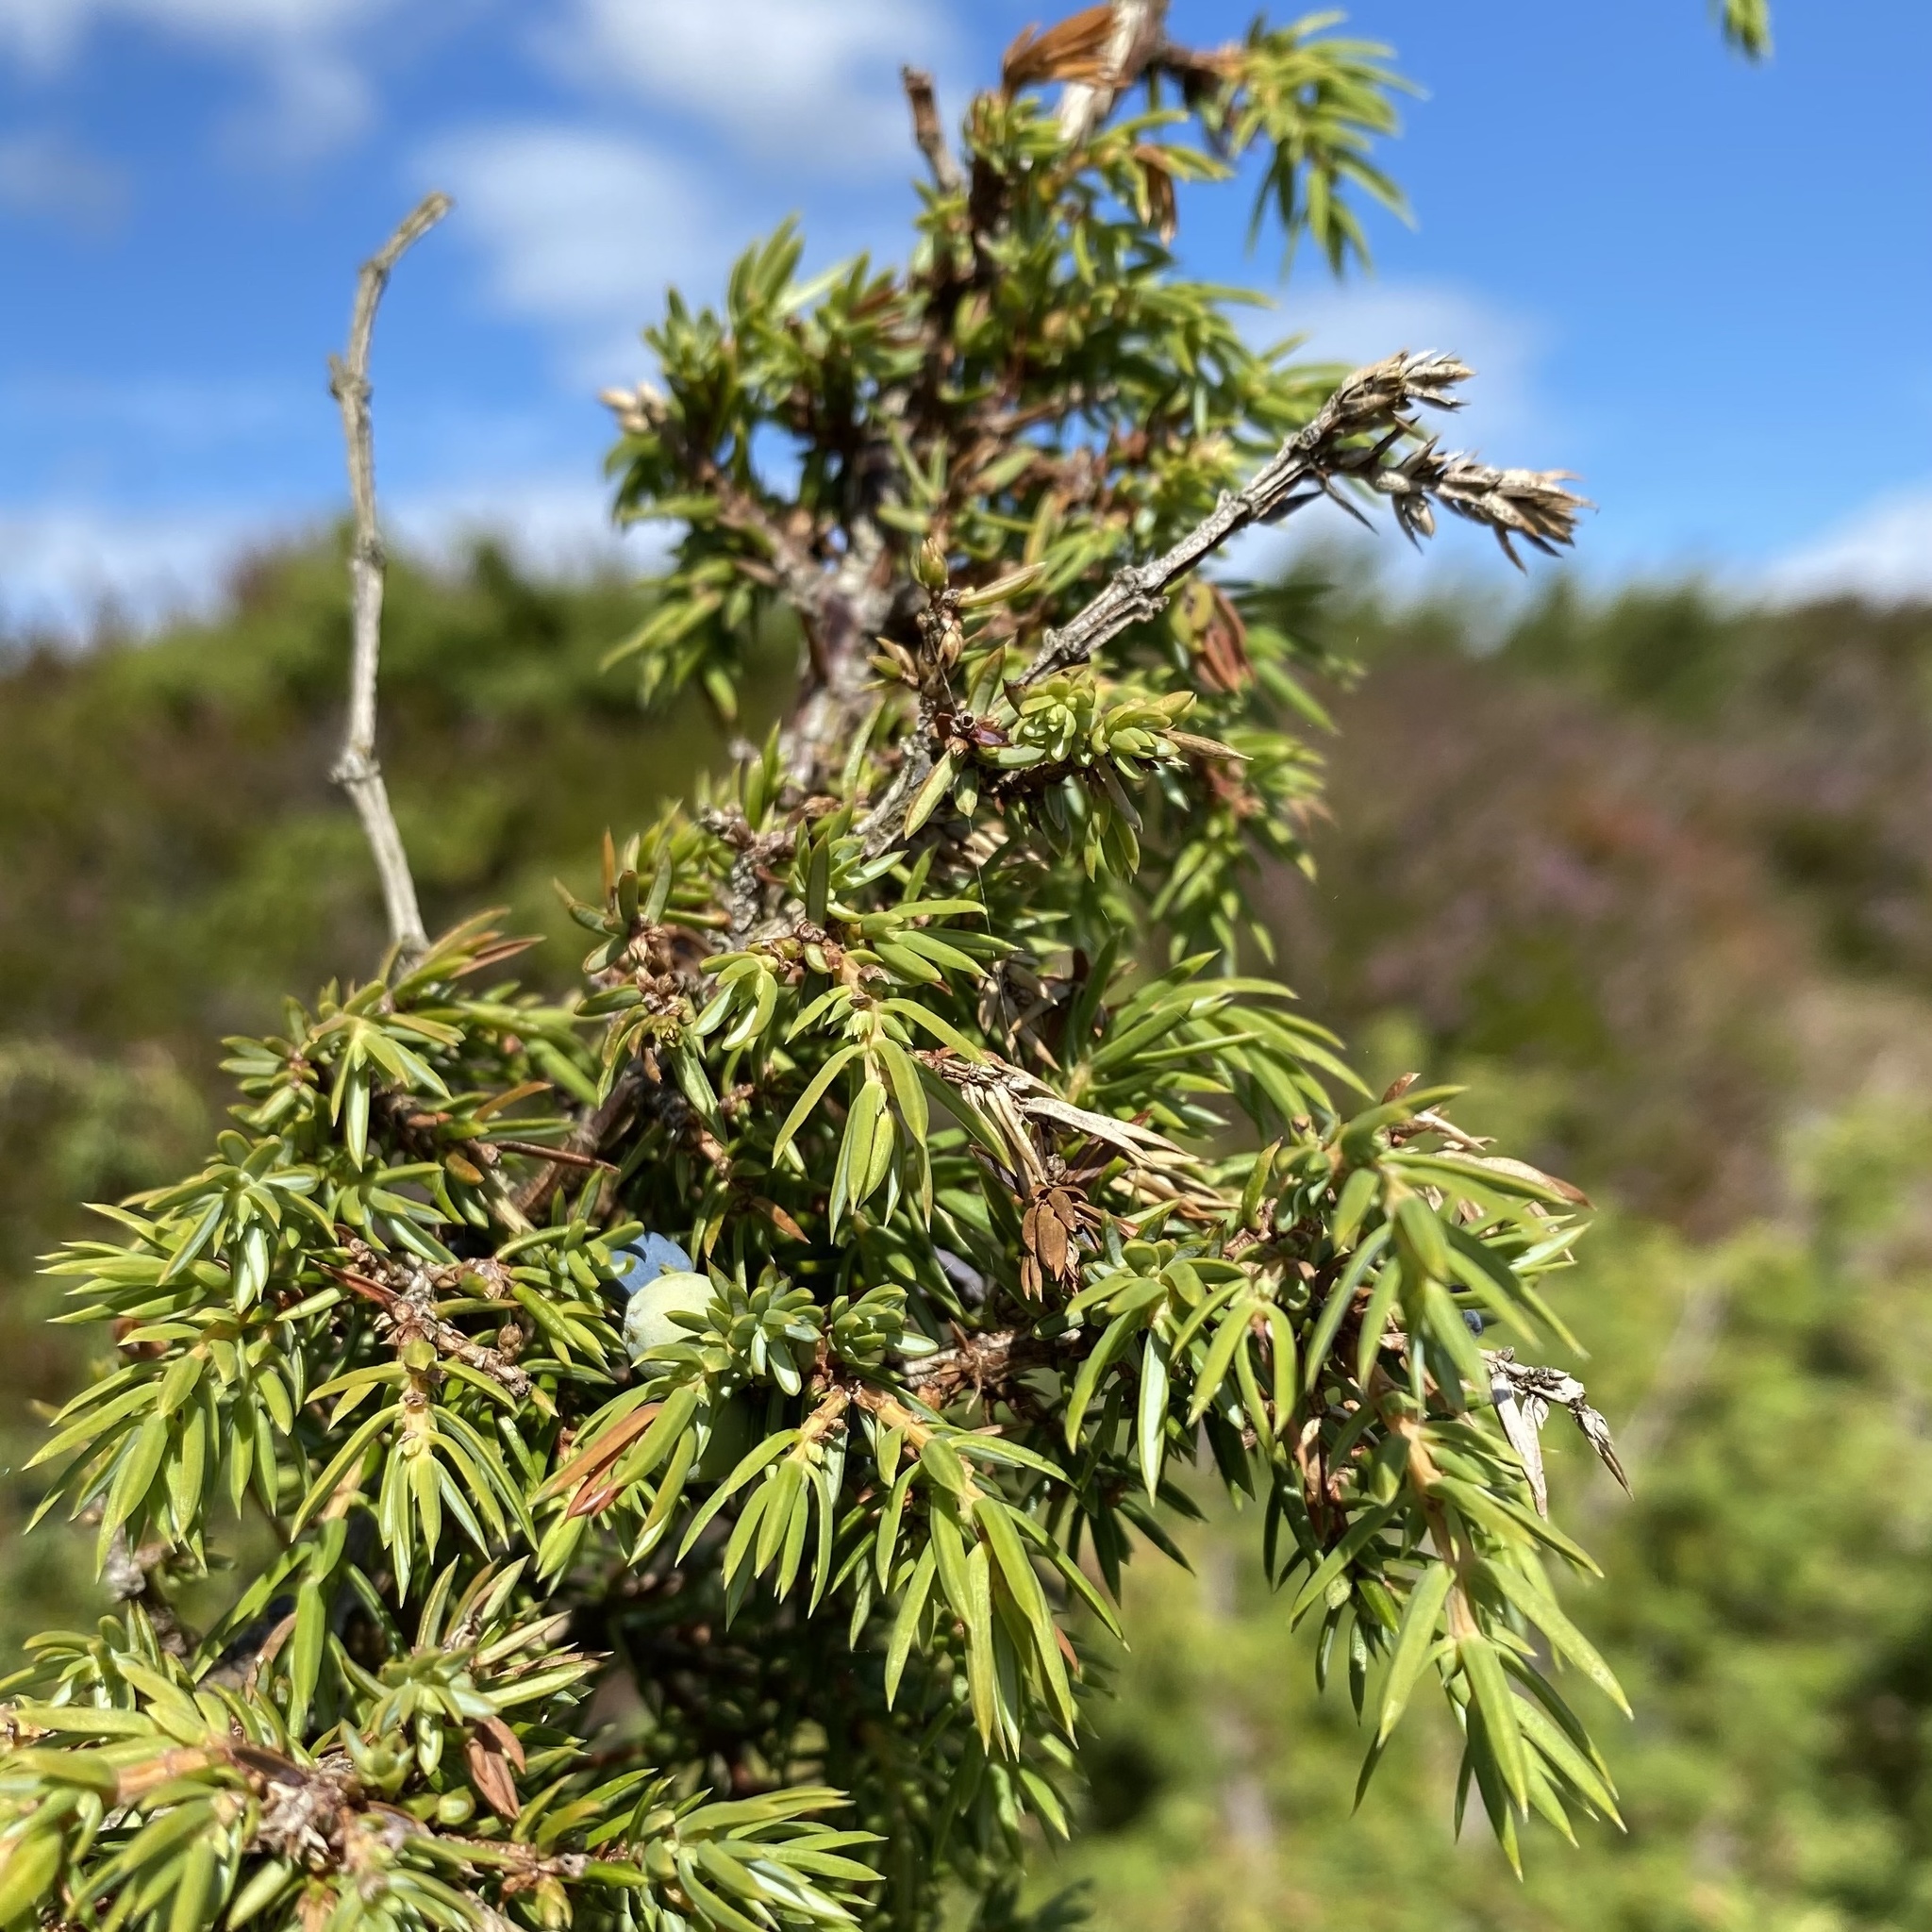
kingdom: Plantae
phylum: Tracheophyta
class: Pinopsida
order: Pinales
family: Cupressaceae
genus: Juniperus
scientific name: Juniperus communis
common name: Common juniper
